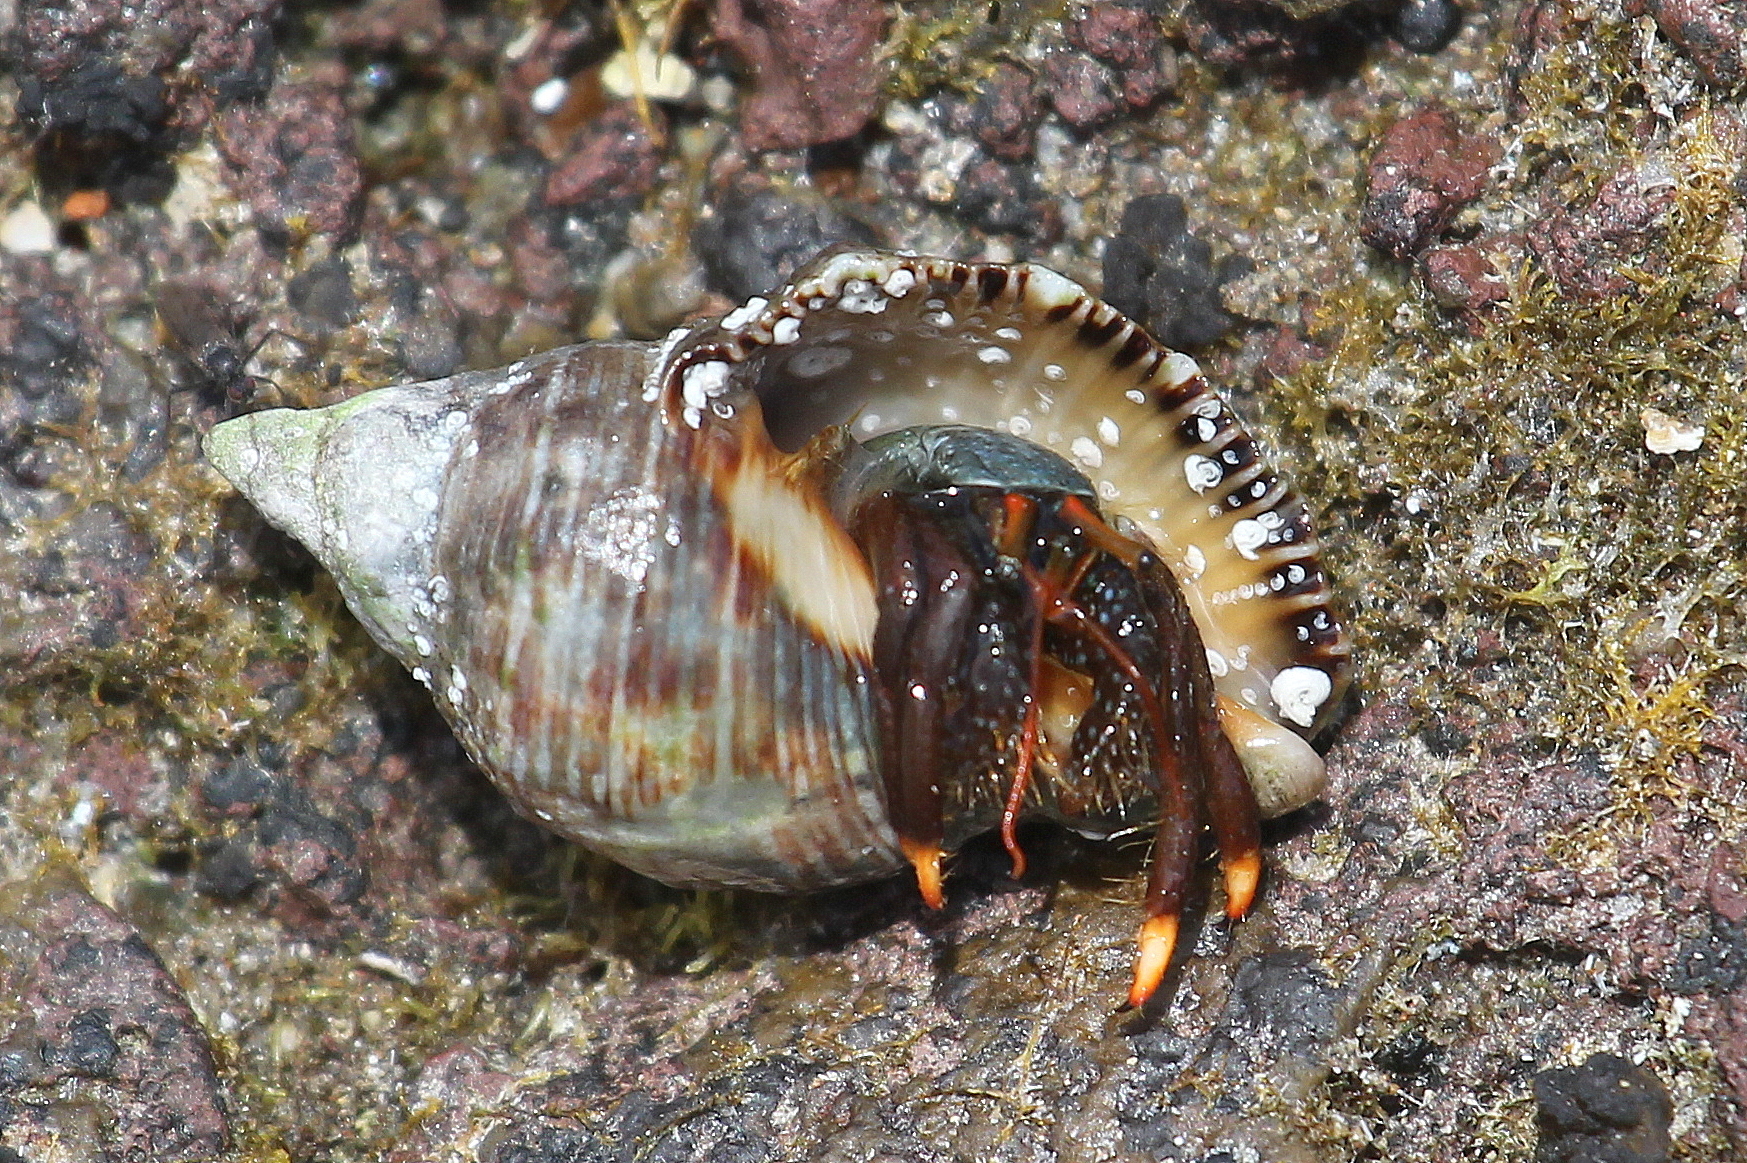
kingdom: Animalia
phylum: Arthropoda
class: Malacostraca
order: Decapoda
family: Diogenidae
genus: Clibanarius
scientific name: Clibanarius aequabilis
